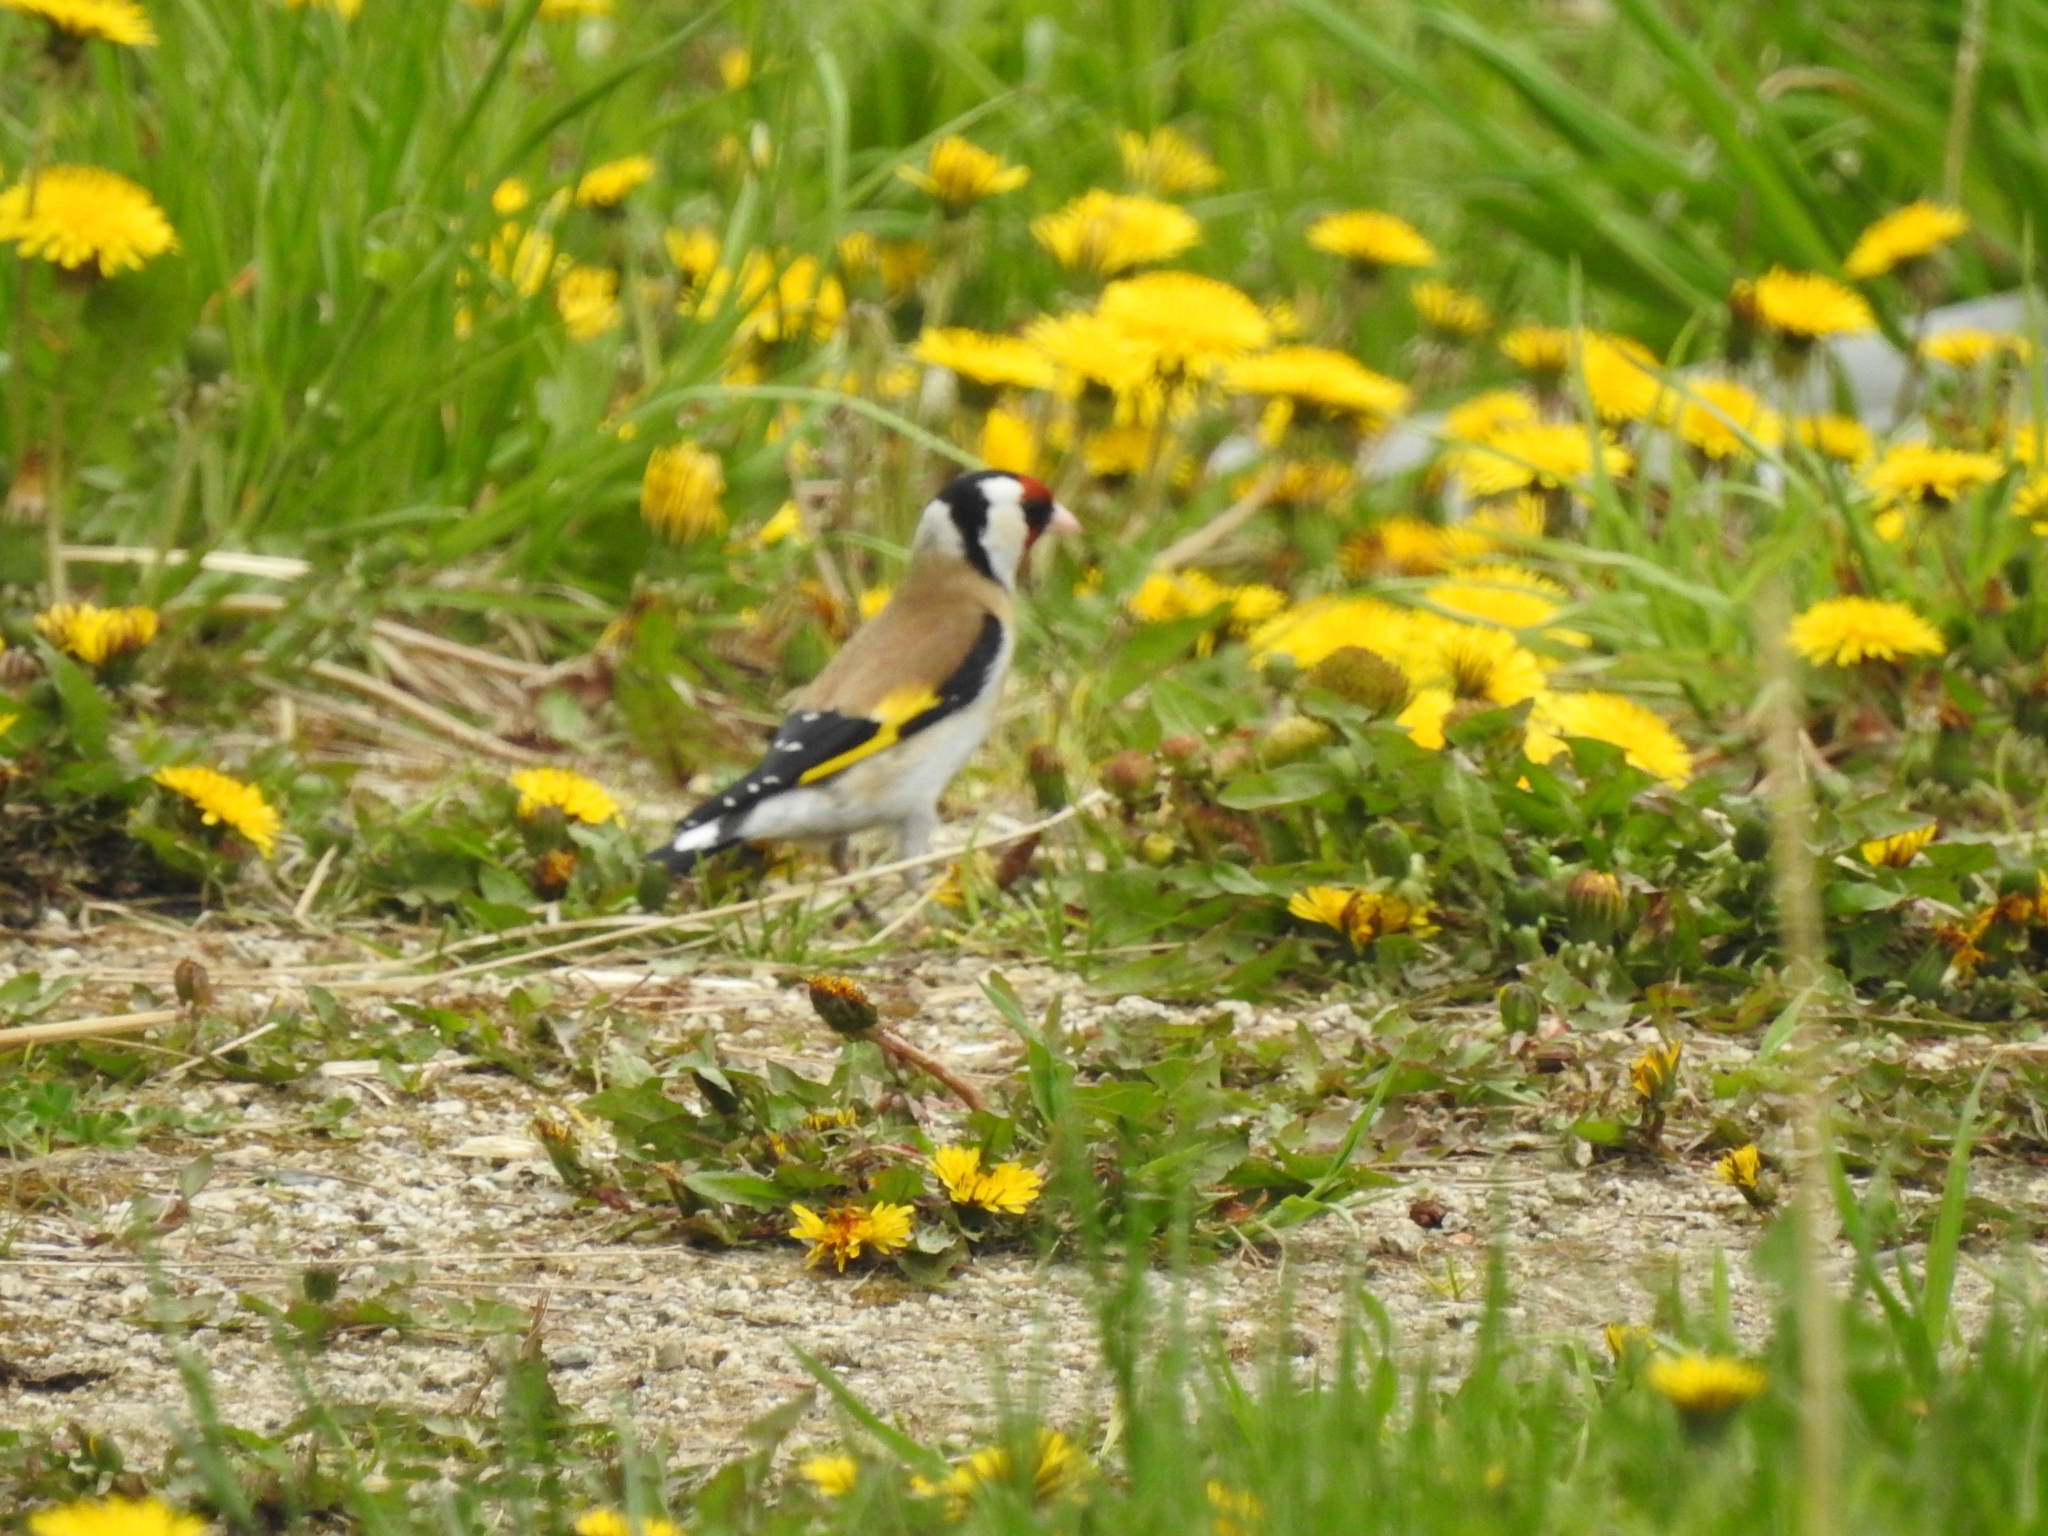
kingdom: Animalia
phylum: Chordata
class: Aves
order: Passeriformes
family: Fringillidae
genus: Carduelis
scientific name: Carduelis carduelis
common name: European goldfinch
